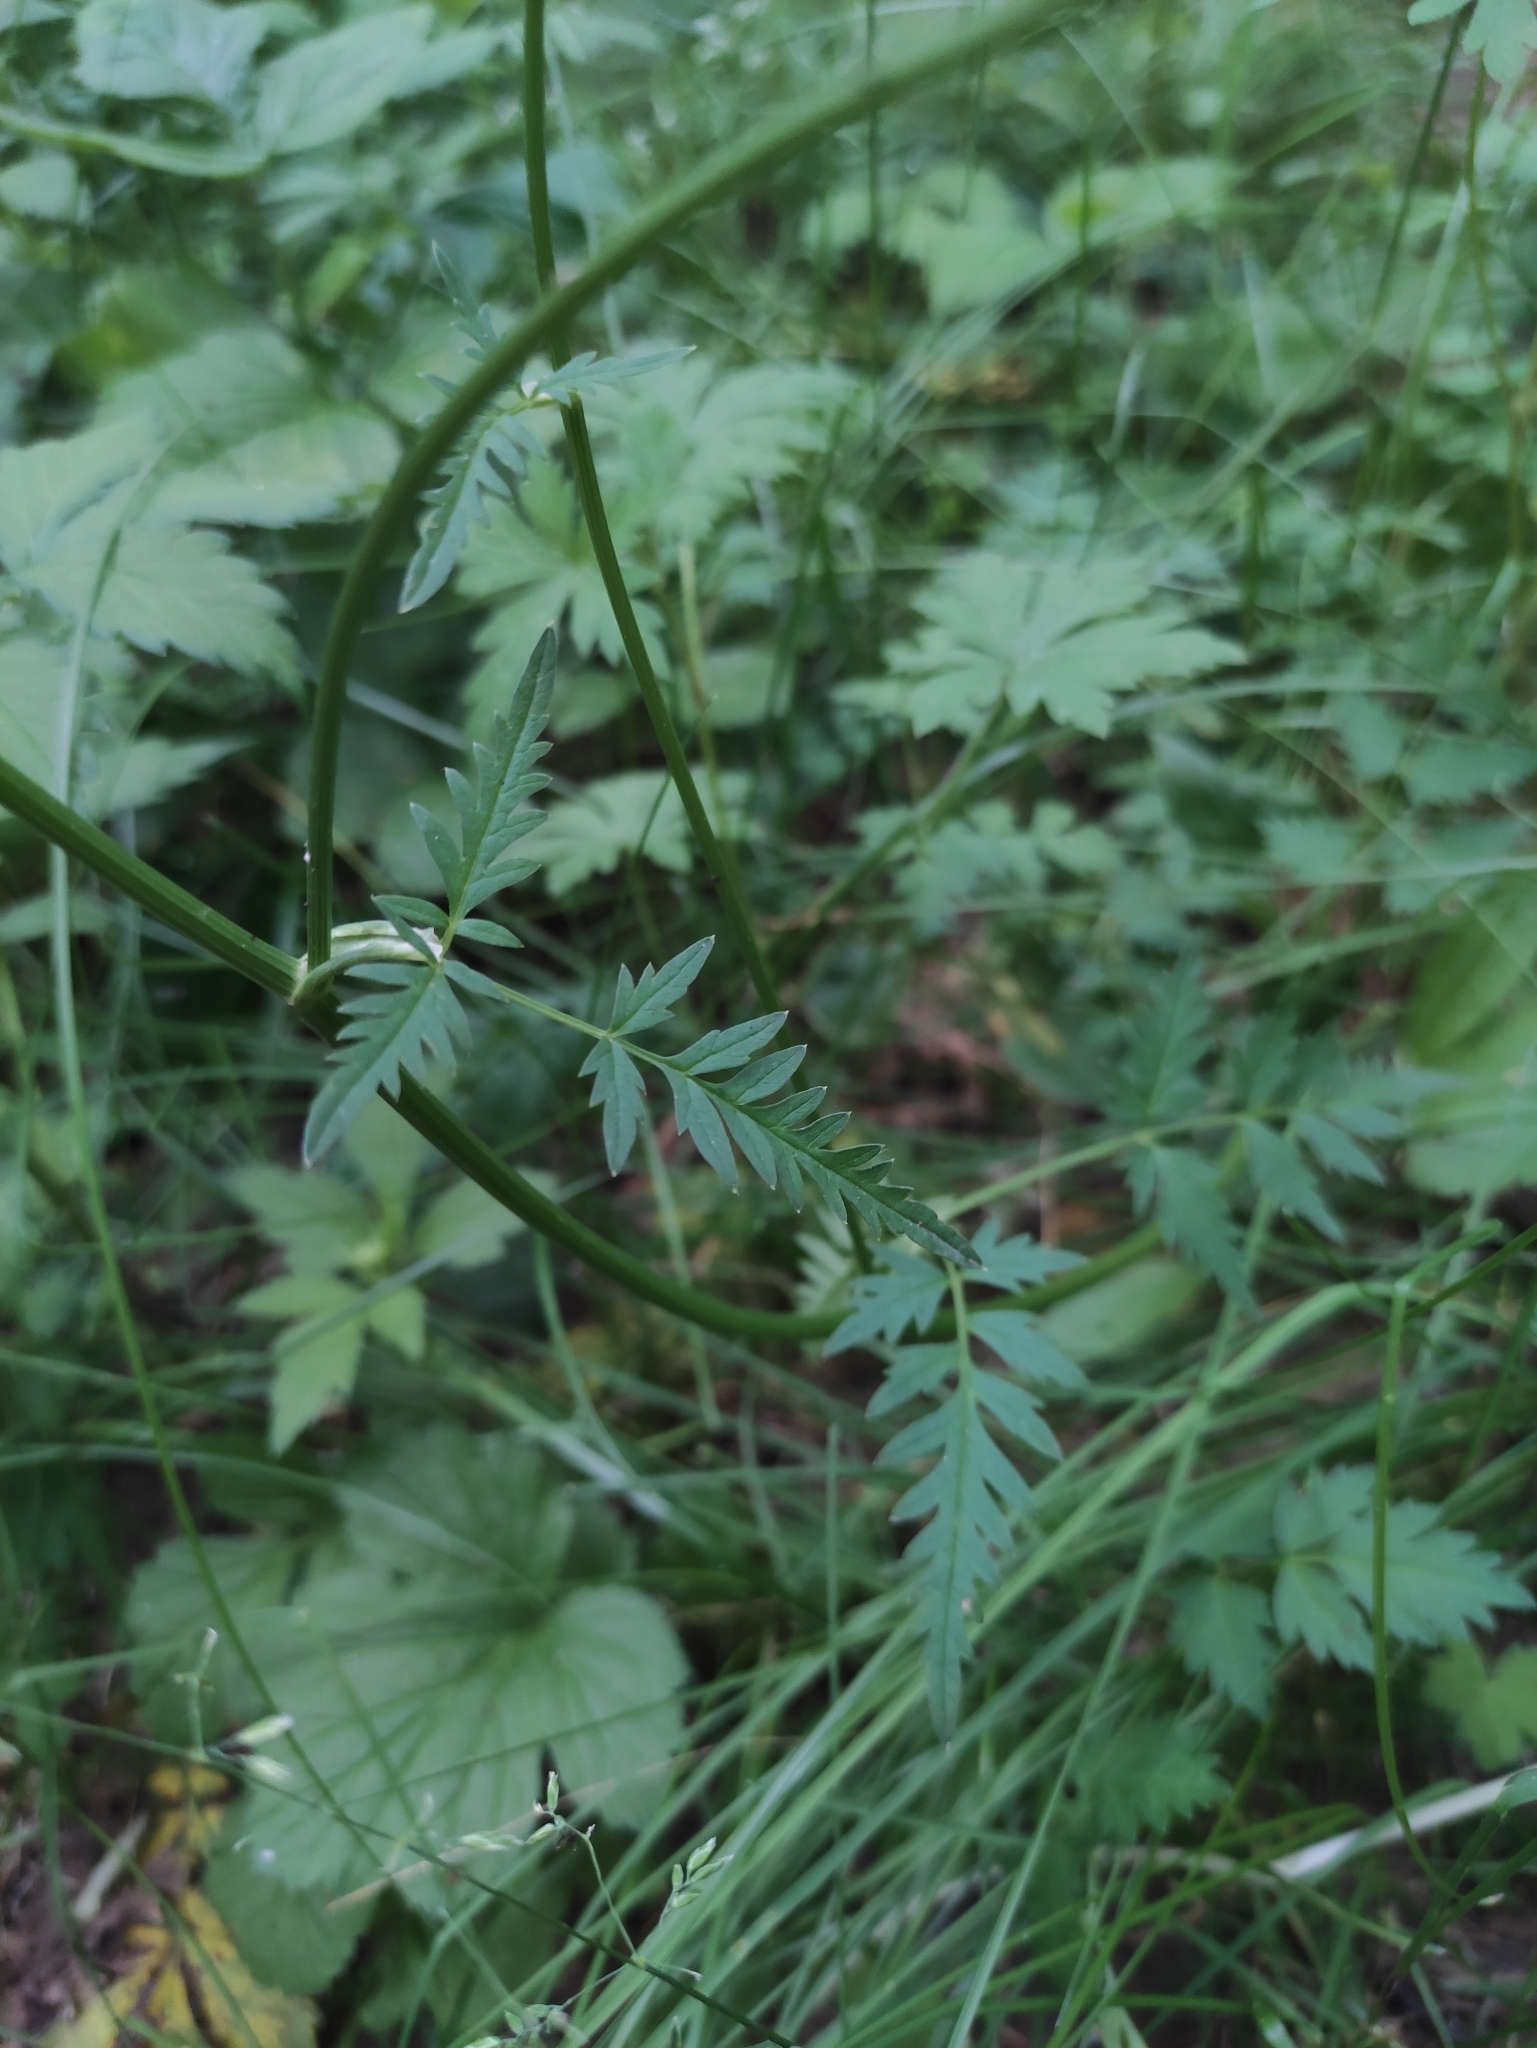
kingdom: Plantae
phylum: Tracheophyta
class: Magnoliopsida
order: Apiales
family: Apiaceae
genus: Aegopodium
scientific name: Aegopodium alpestre
